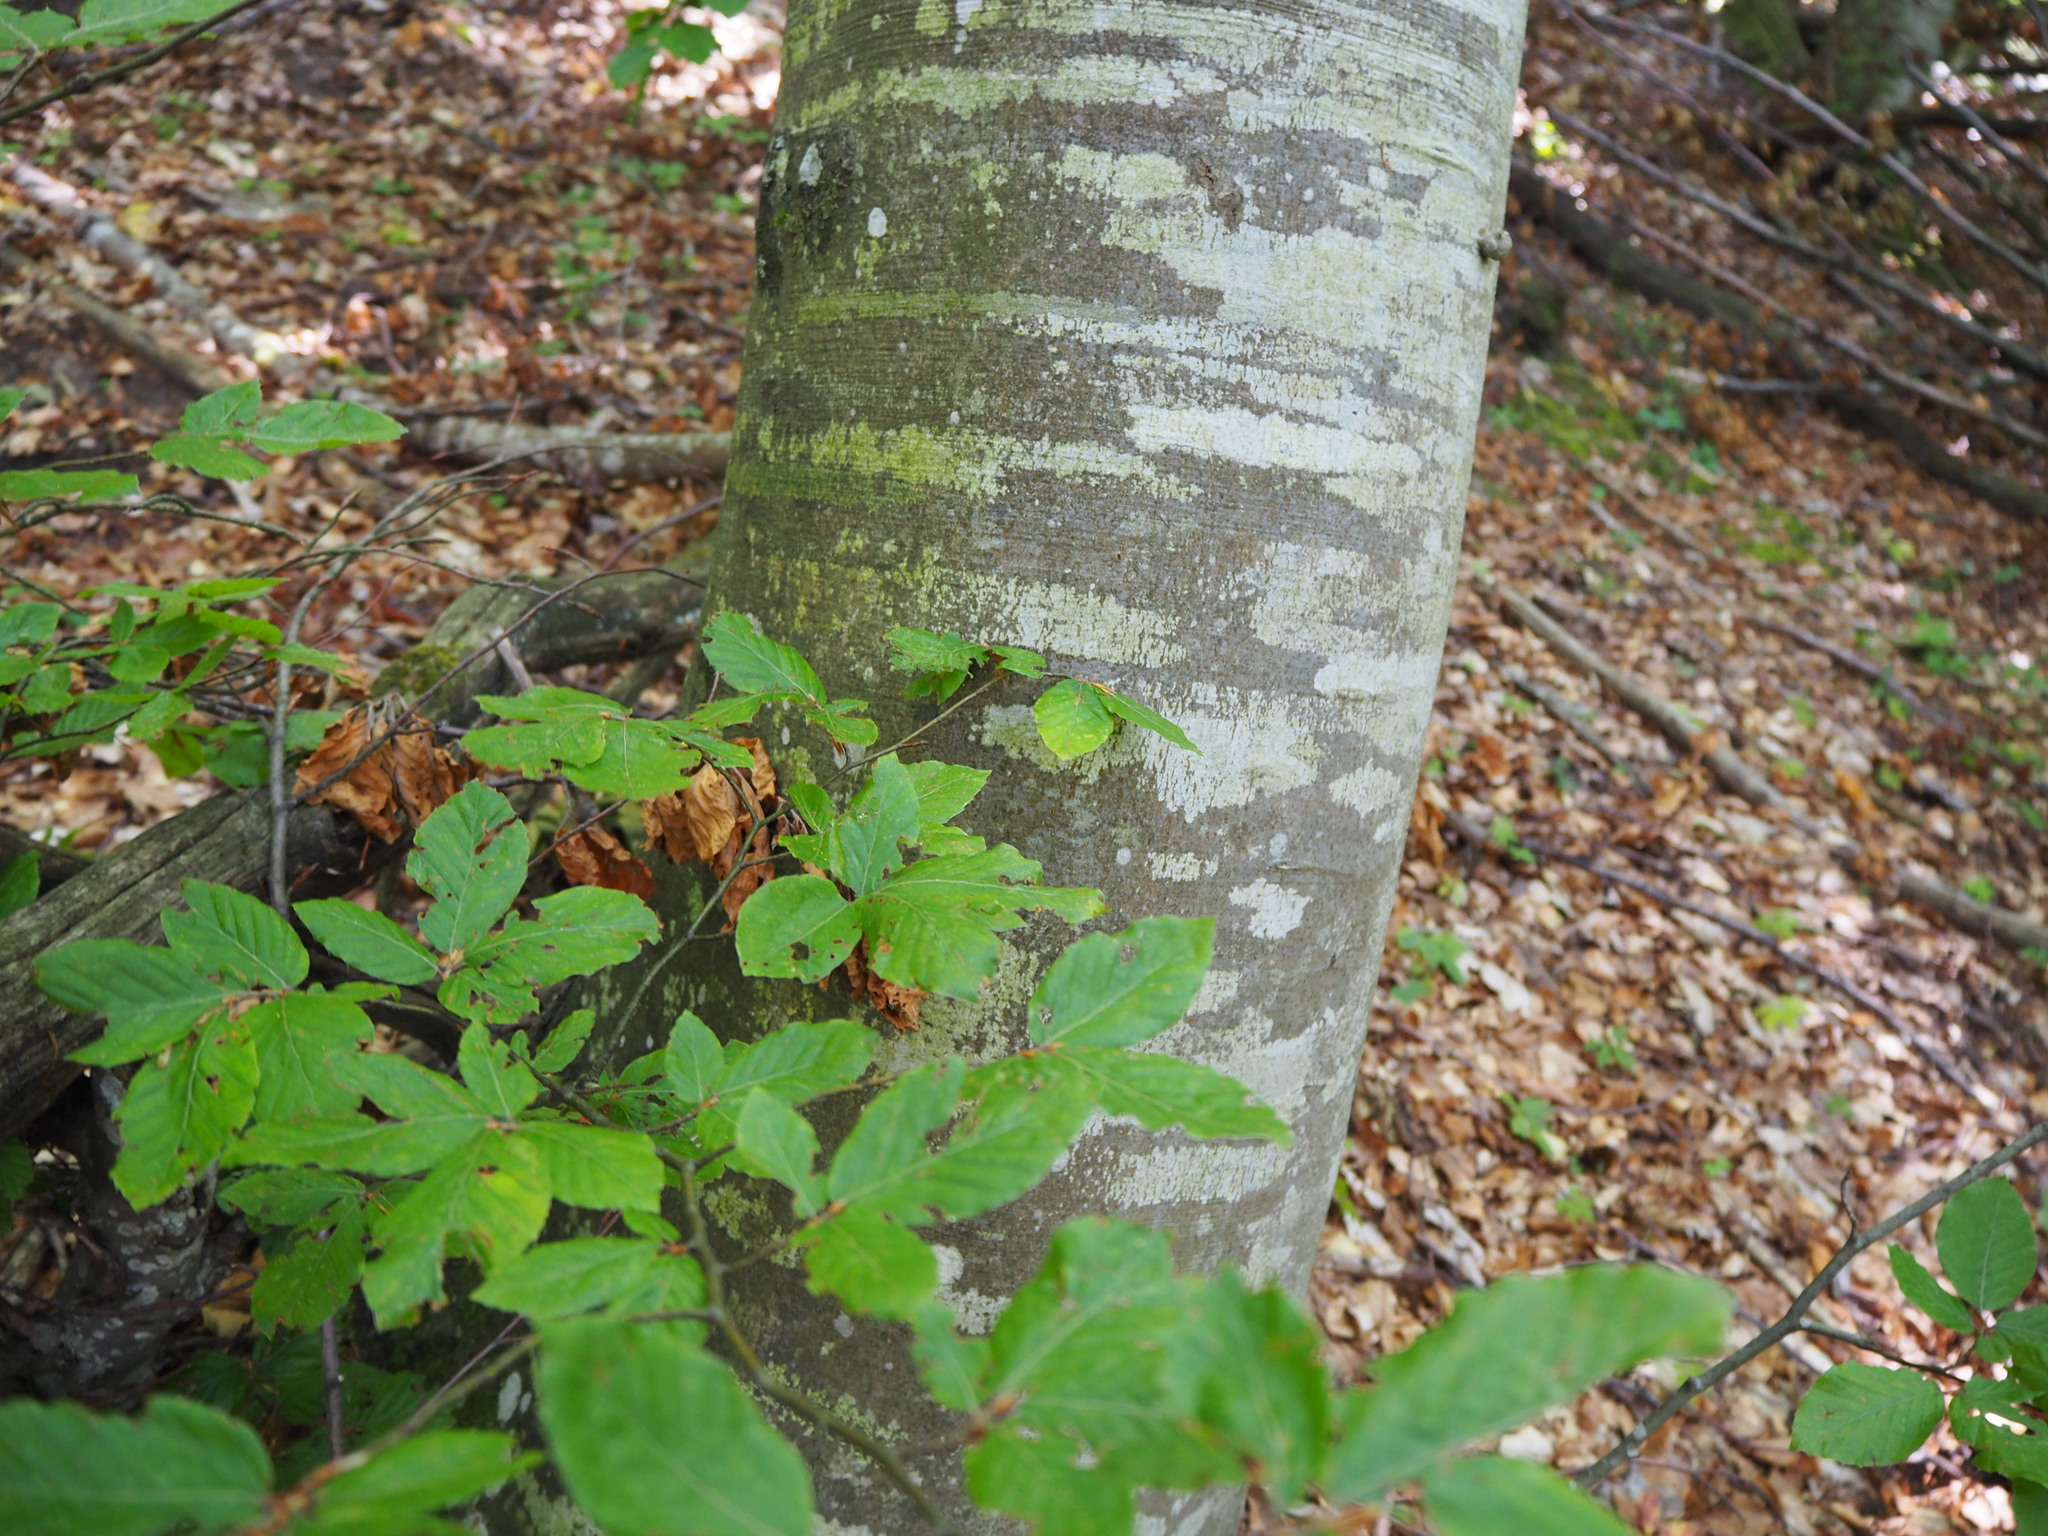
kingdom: Plantae
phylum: Tracheophyta
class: Magnoliopsida
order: Fagales
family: Fagaceae
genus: Fagus
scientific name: Fagus sylvatica
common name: Beech
